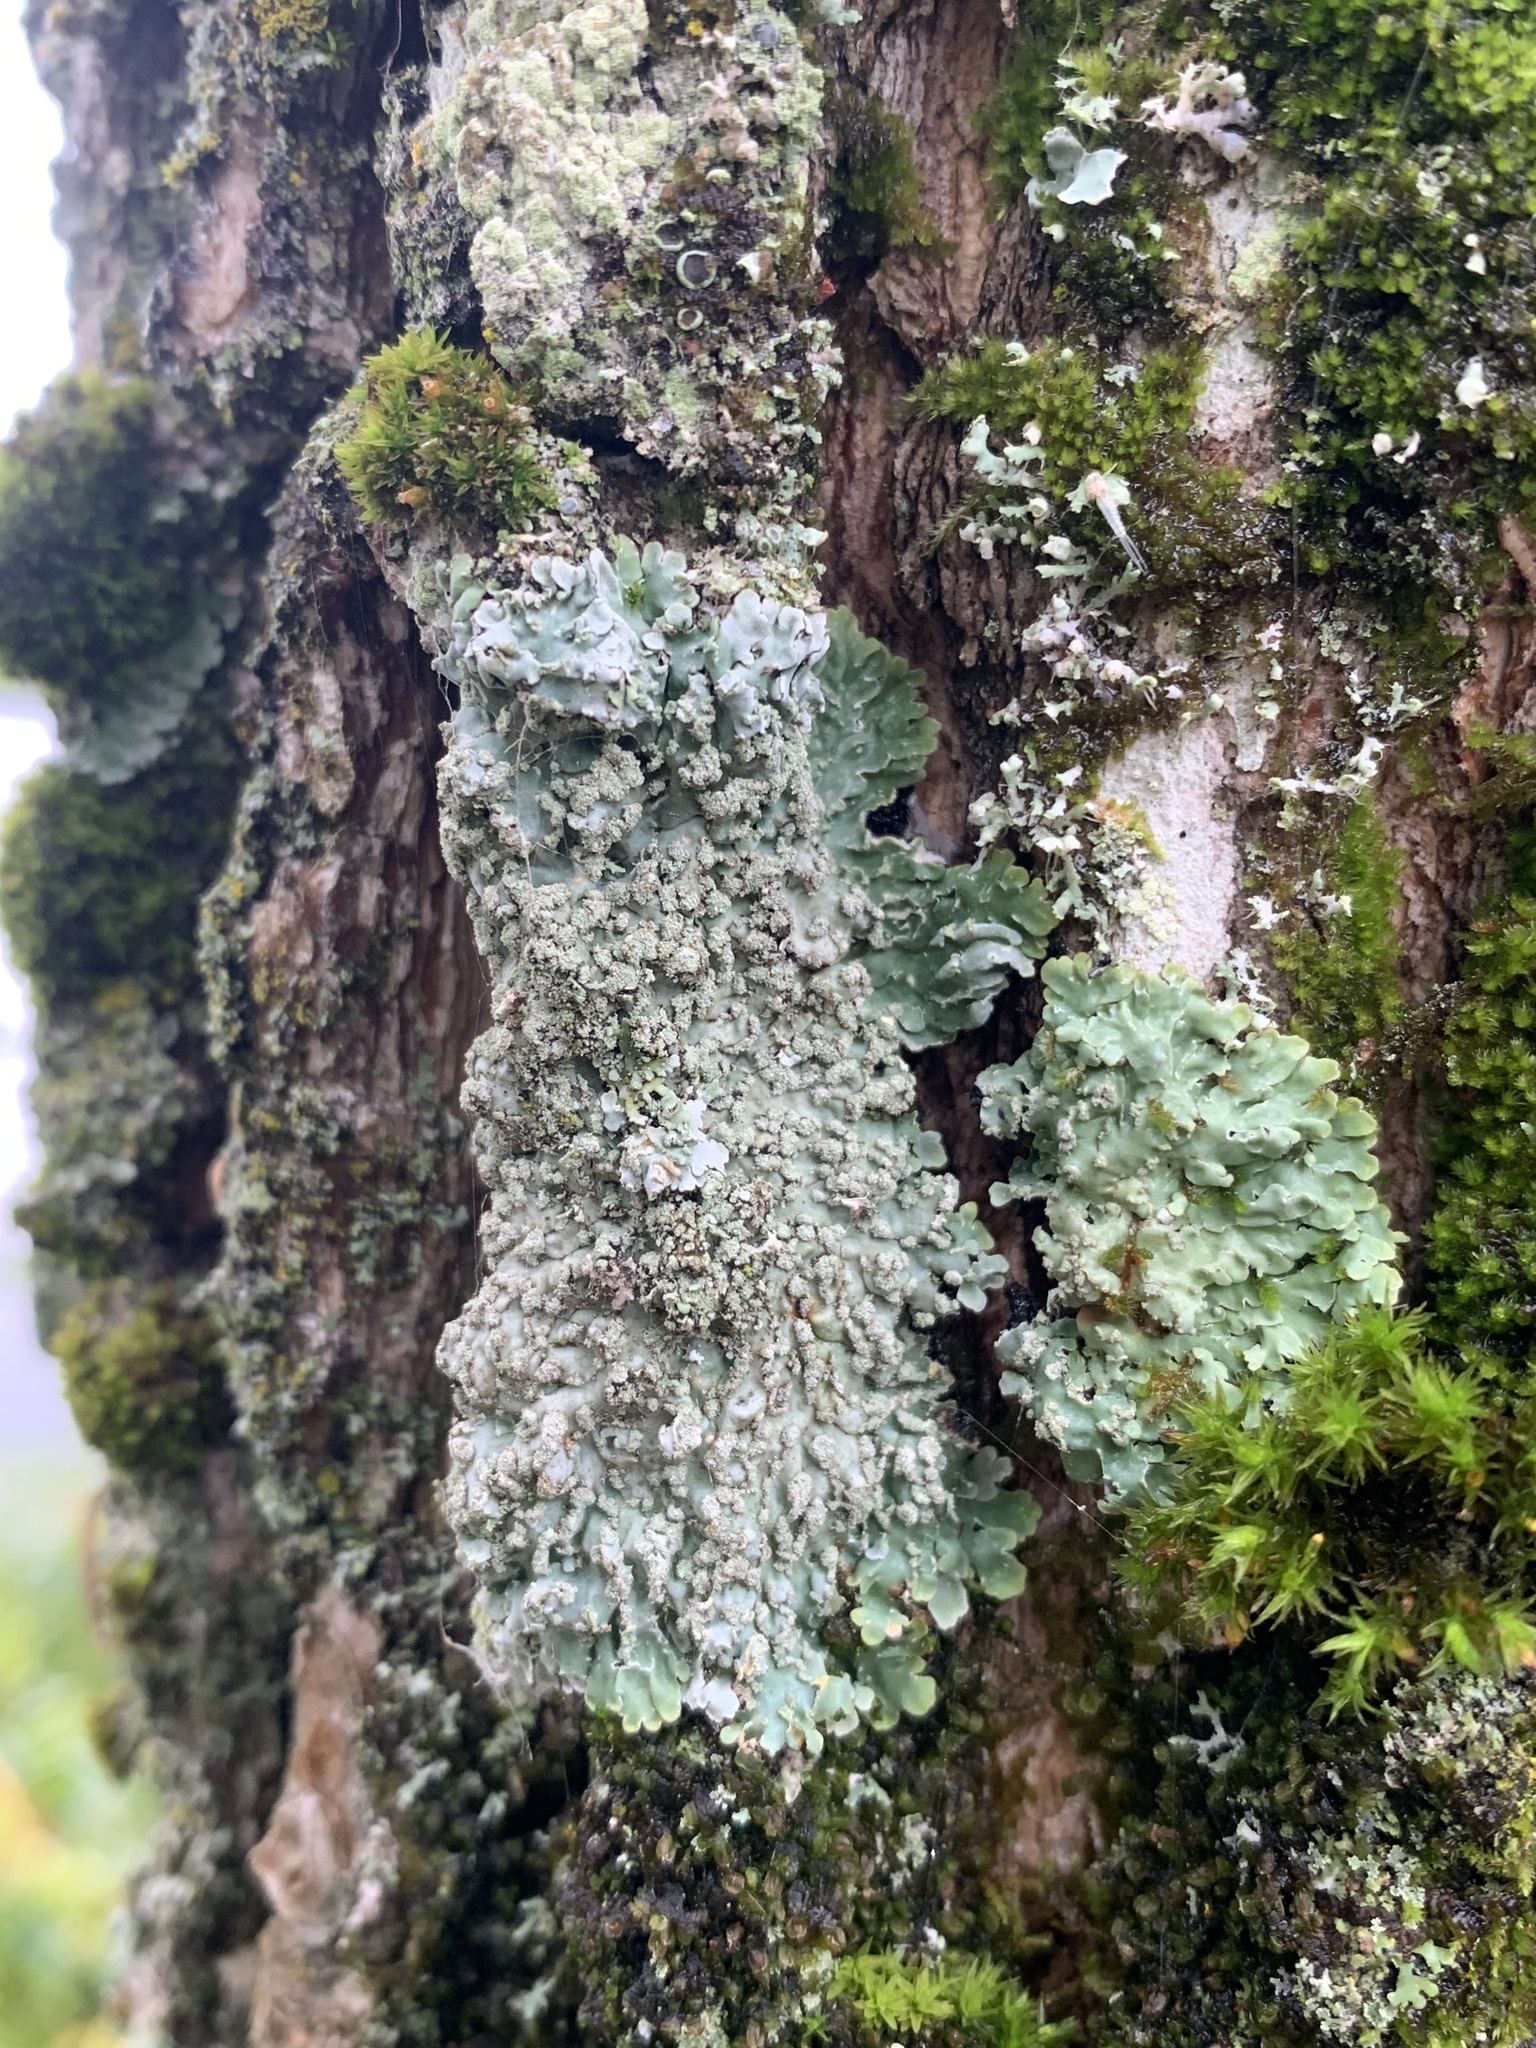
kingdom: Fungi
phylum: Ascomycota
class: Lecanoromycetes
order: Caliciales
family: Caliciaceae
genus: Pyxine
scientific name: Pyxine sorediata
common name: Mustard lichen
